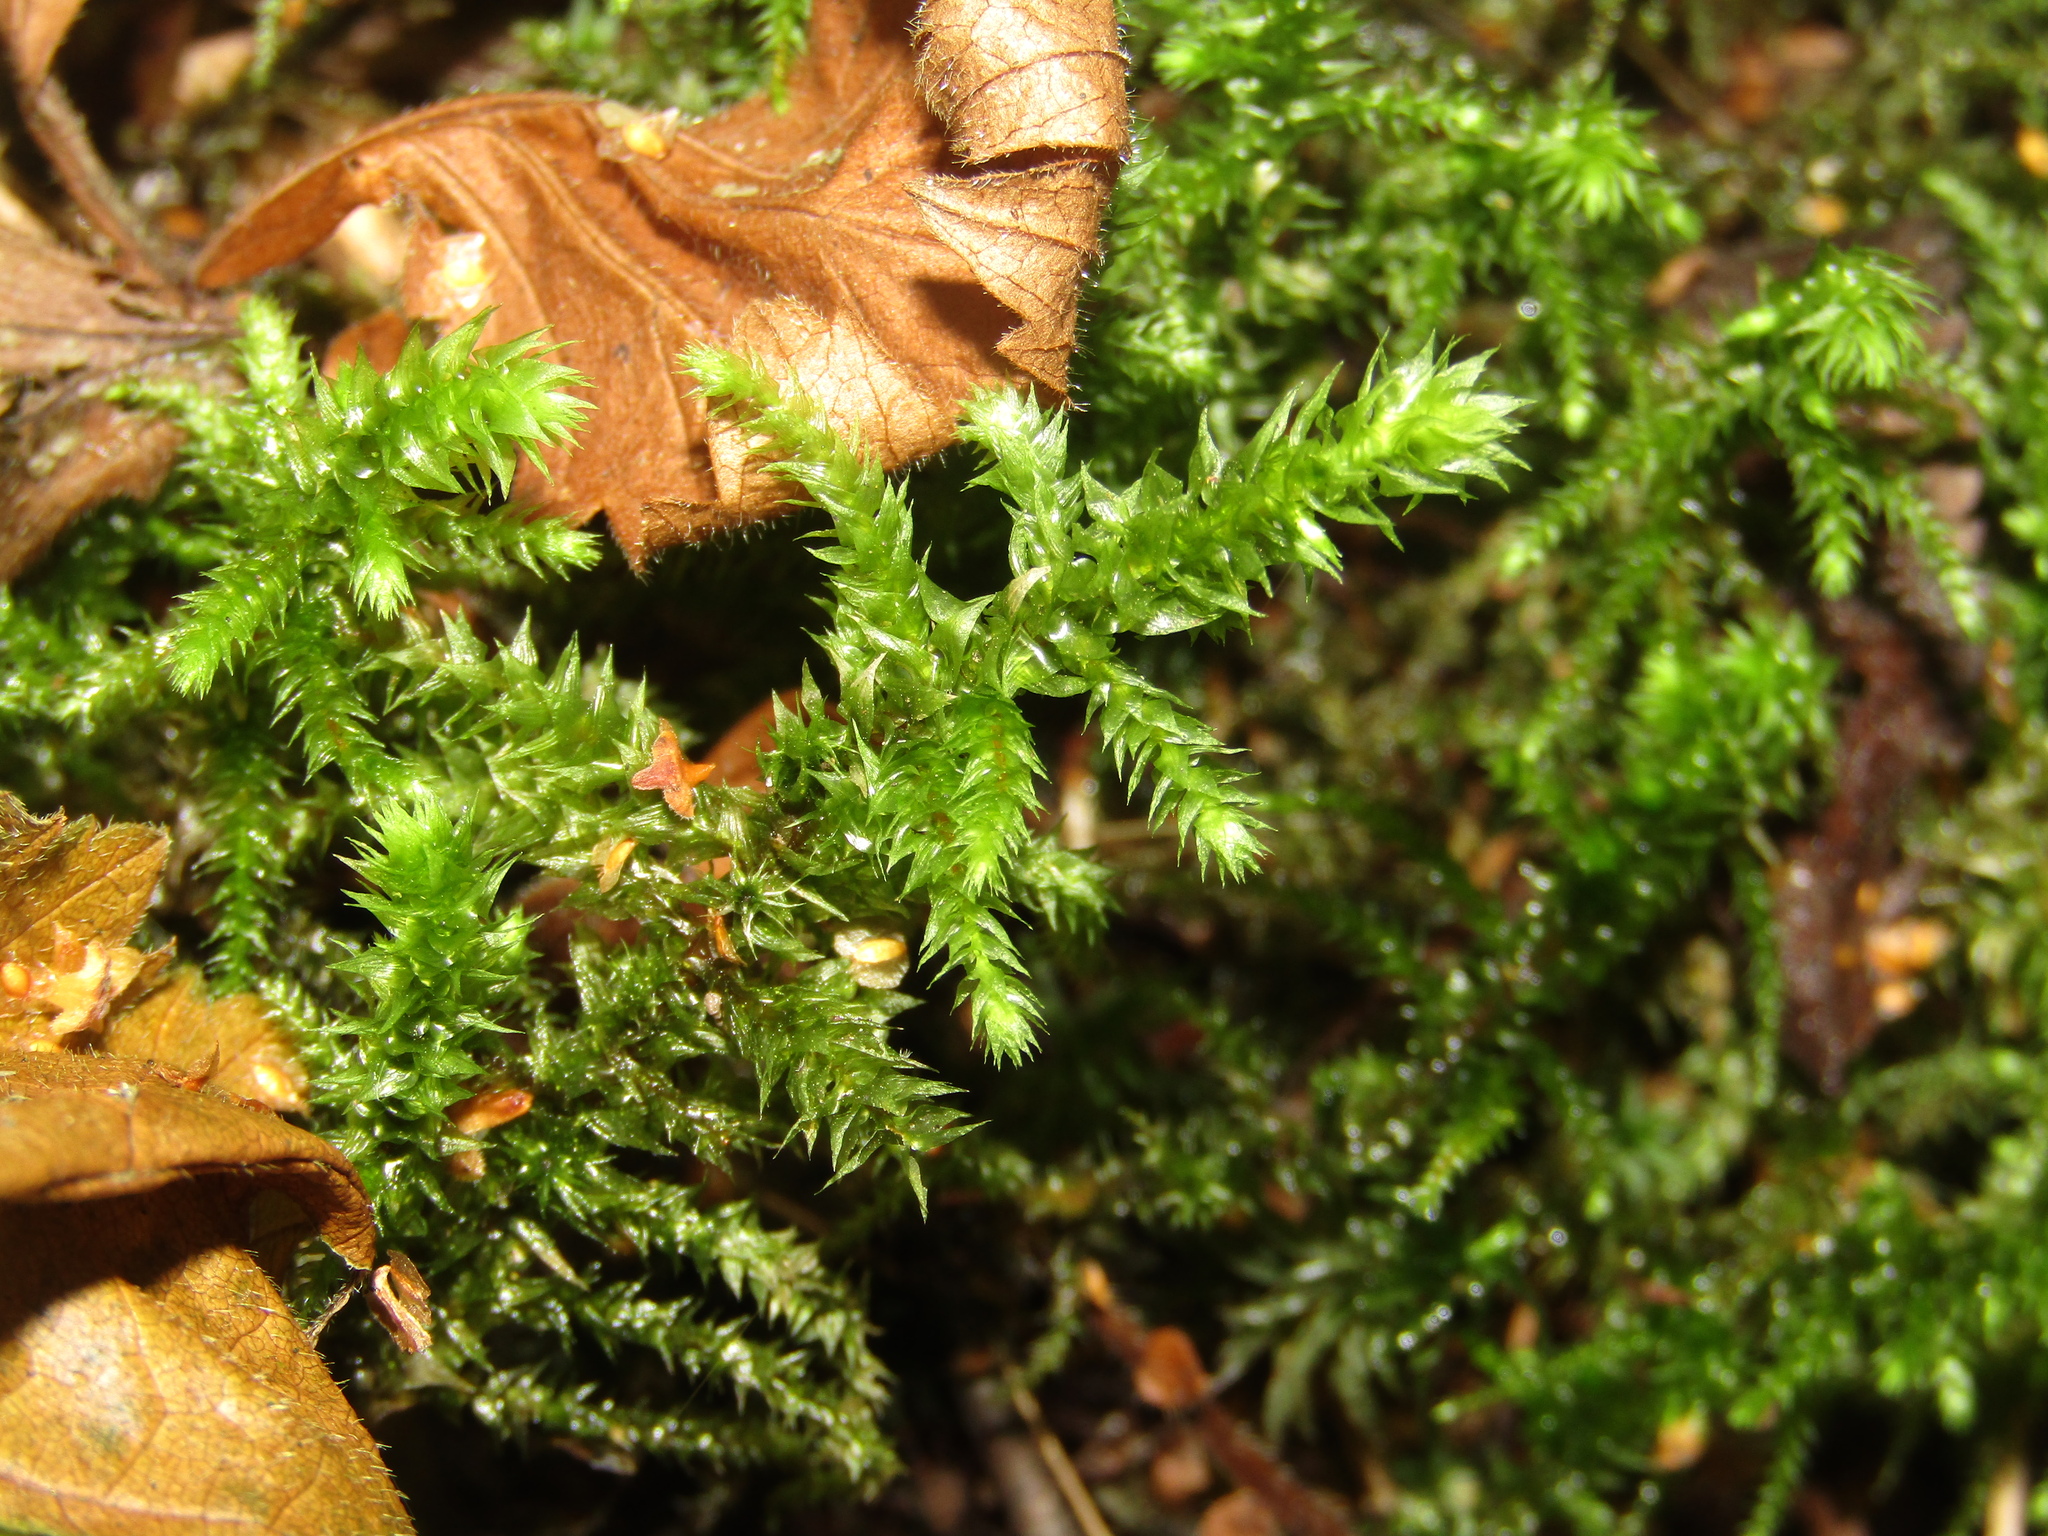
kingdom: Plantae
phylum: Bryophyta
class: Bryopsida
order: Hypnales
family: Hylocomiaceae
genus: Hylocomiadelphus
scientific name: Hylocomiadelphus triquetrus
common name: Rough goose neck moss
